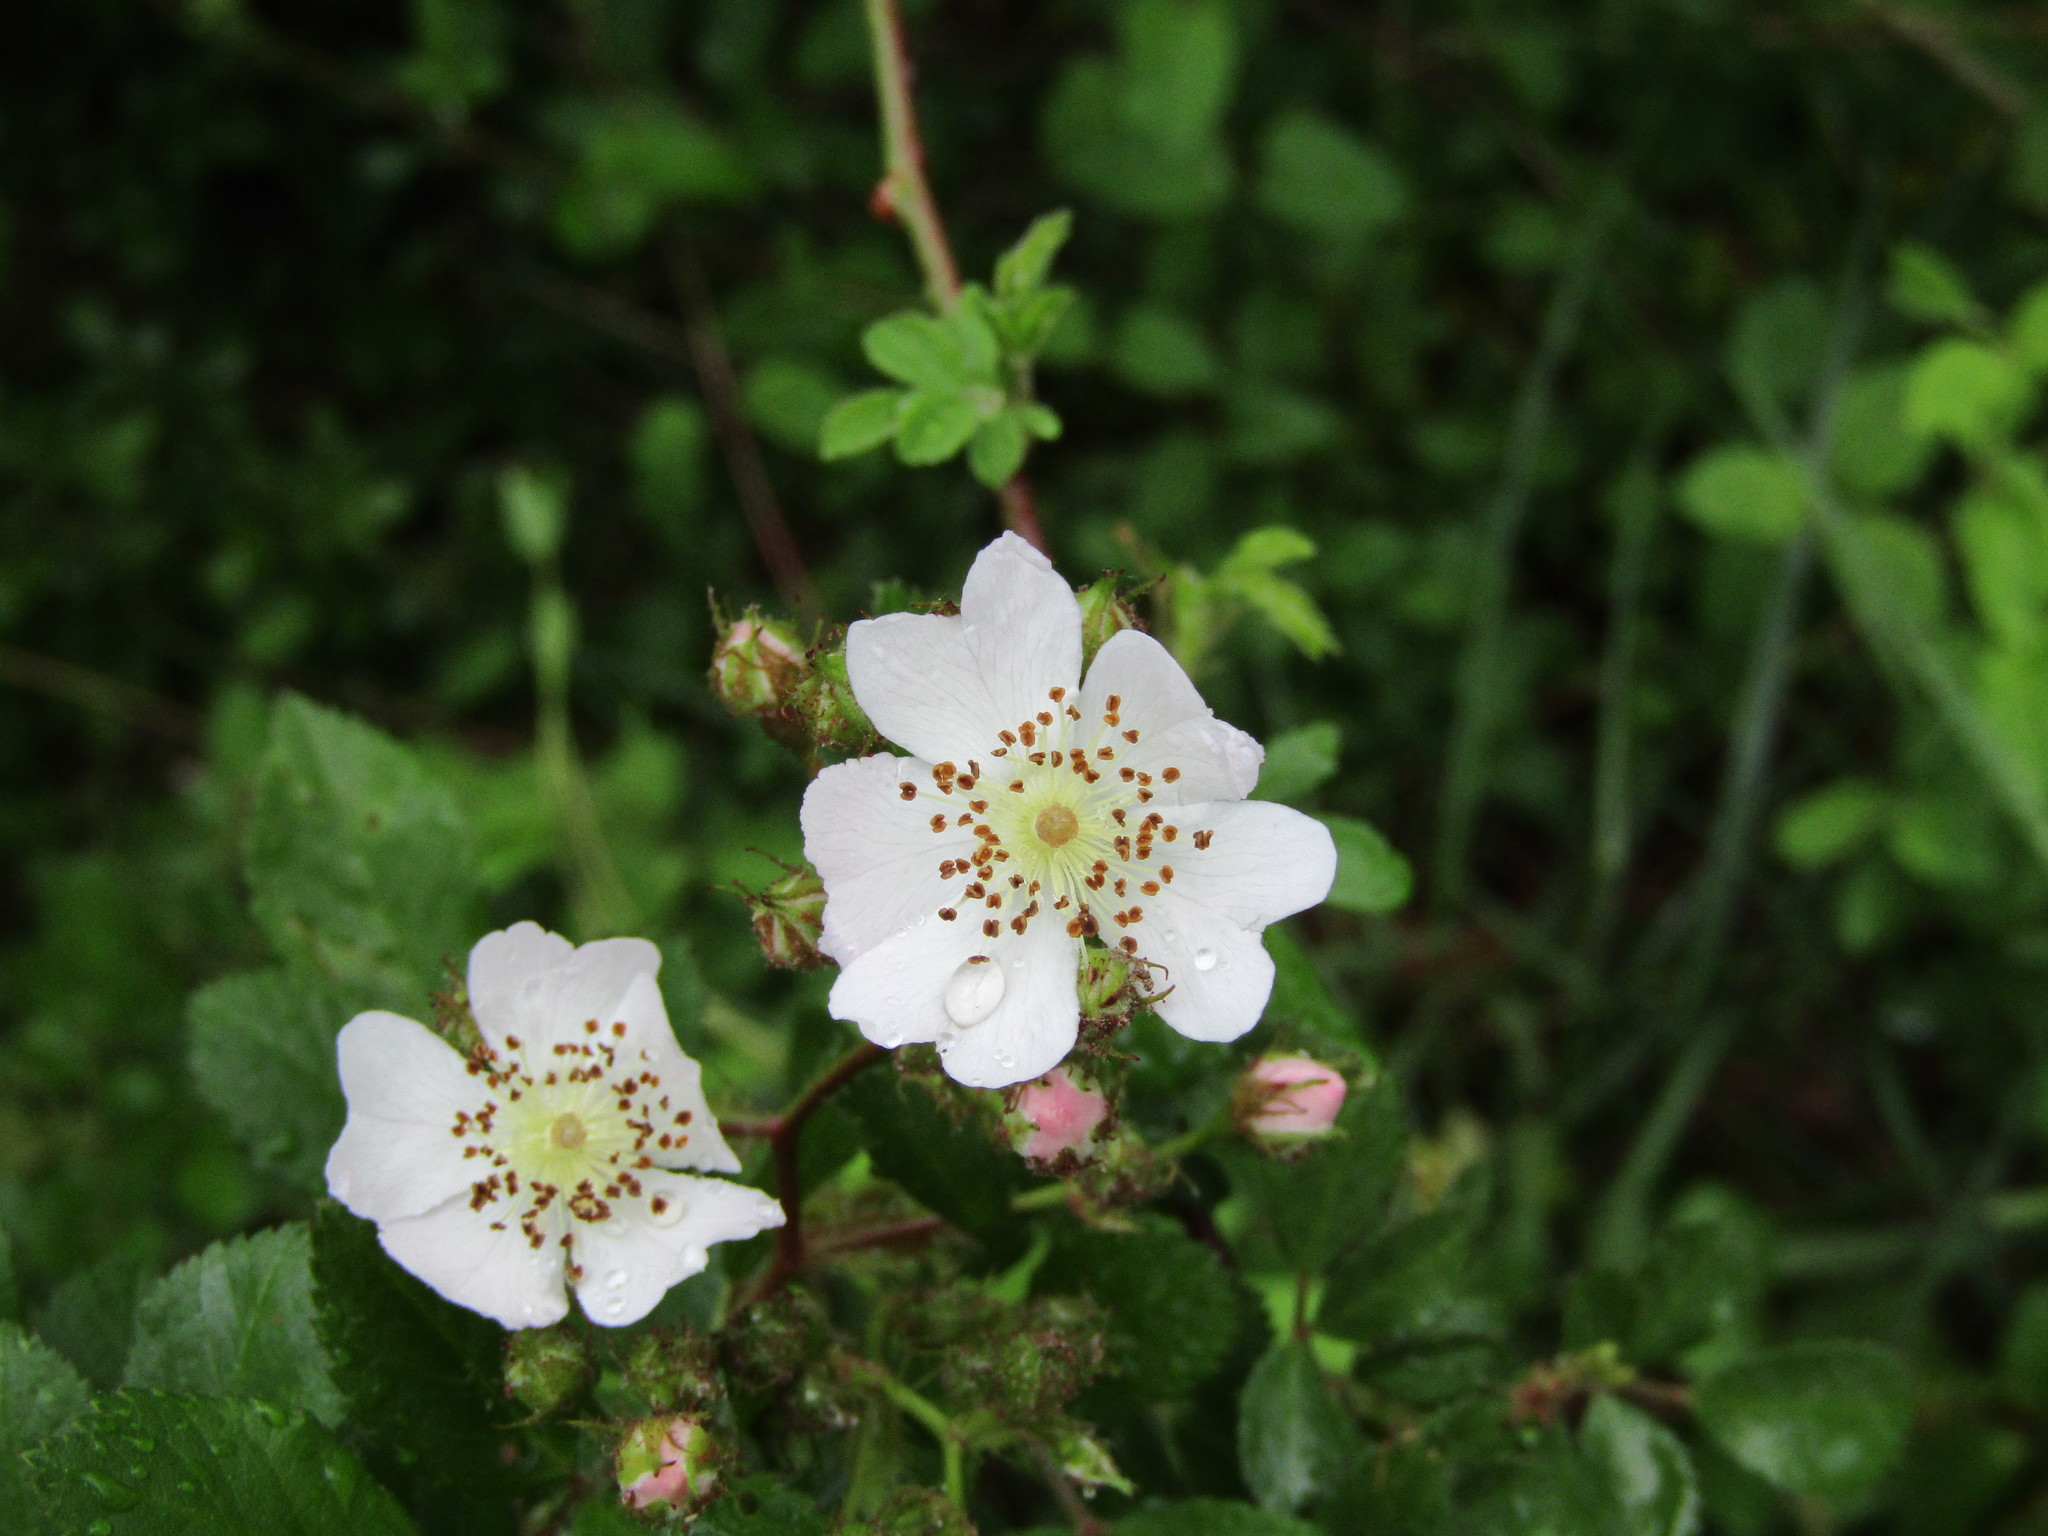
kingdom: Plantae
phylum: Tracheophyta
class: Magnoliopsida
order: Rosales
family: Rosaceae
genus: Rosa
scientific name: Rosa multiflora
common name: Multiflora rose
